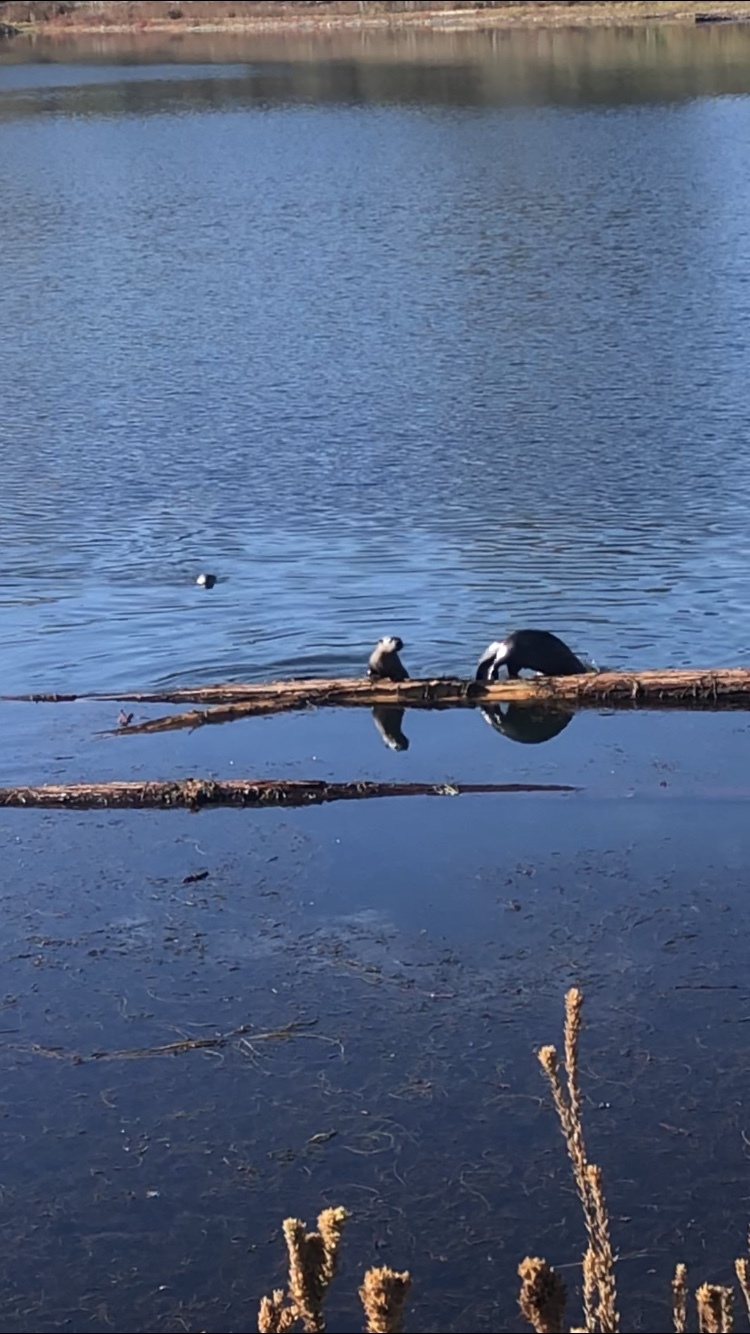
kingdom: Animalia
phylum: Chordata
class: Mammalia
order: Carnivora
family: Mustelidae
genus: Lontra
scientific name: Lontra canadensis
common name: North american river otter
